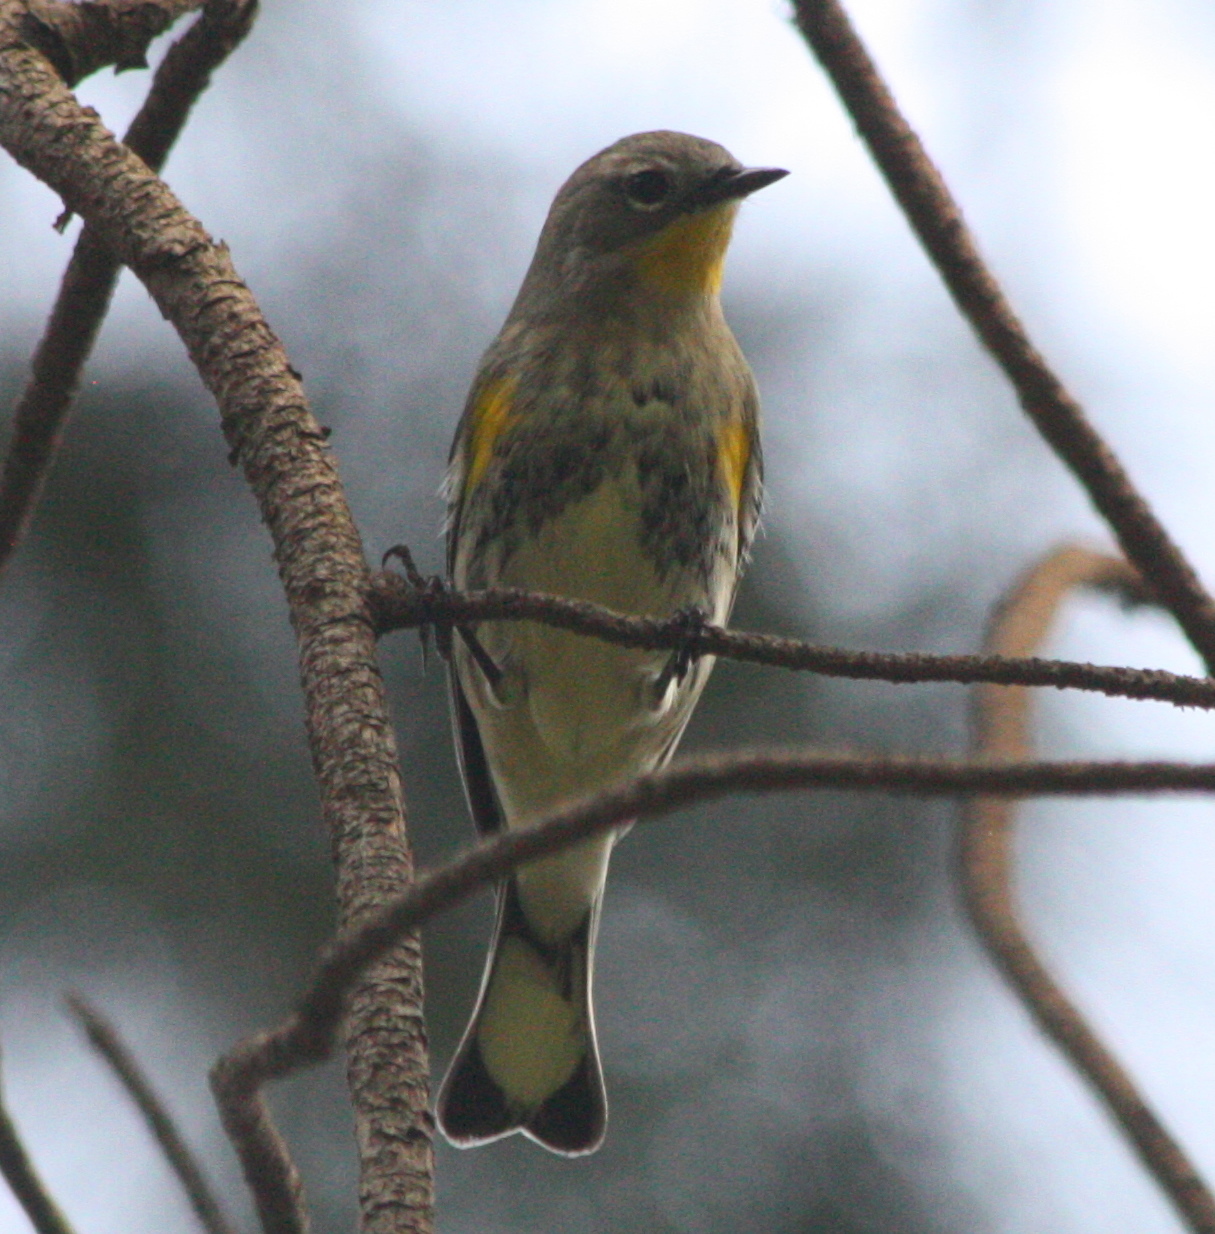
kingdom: Animalia
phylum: Chordata
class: Aves
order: Passeriformes
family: Parulidae
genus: Setophaga
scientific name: Setophaga coronata
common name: Myrtle warbler
